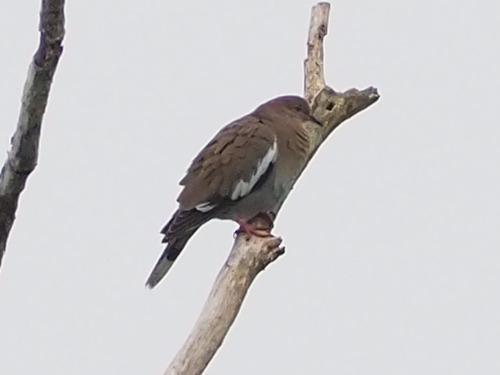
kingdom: Animalia
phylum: Chordata
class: Aves
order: Columbiformes
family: Columbidae
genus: Zenaida
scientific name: Zenaida asiatica
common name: White-winged dove
